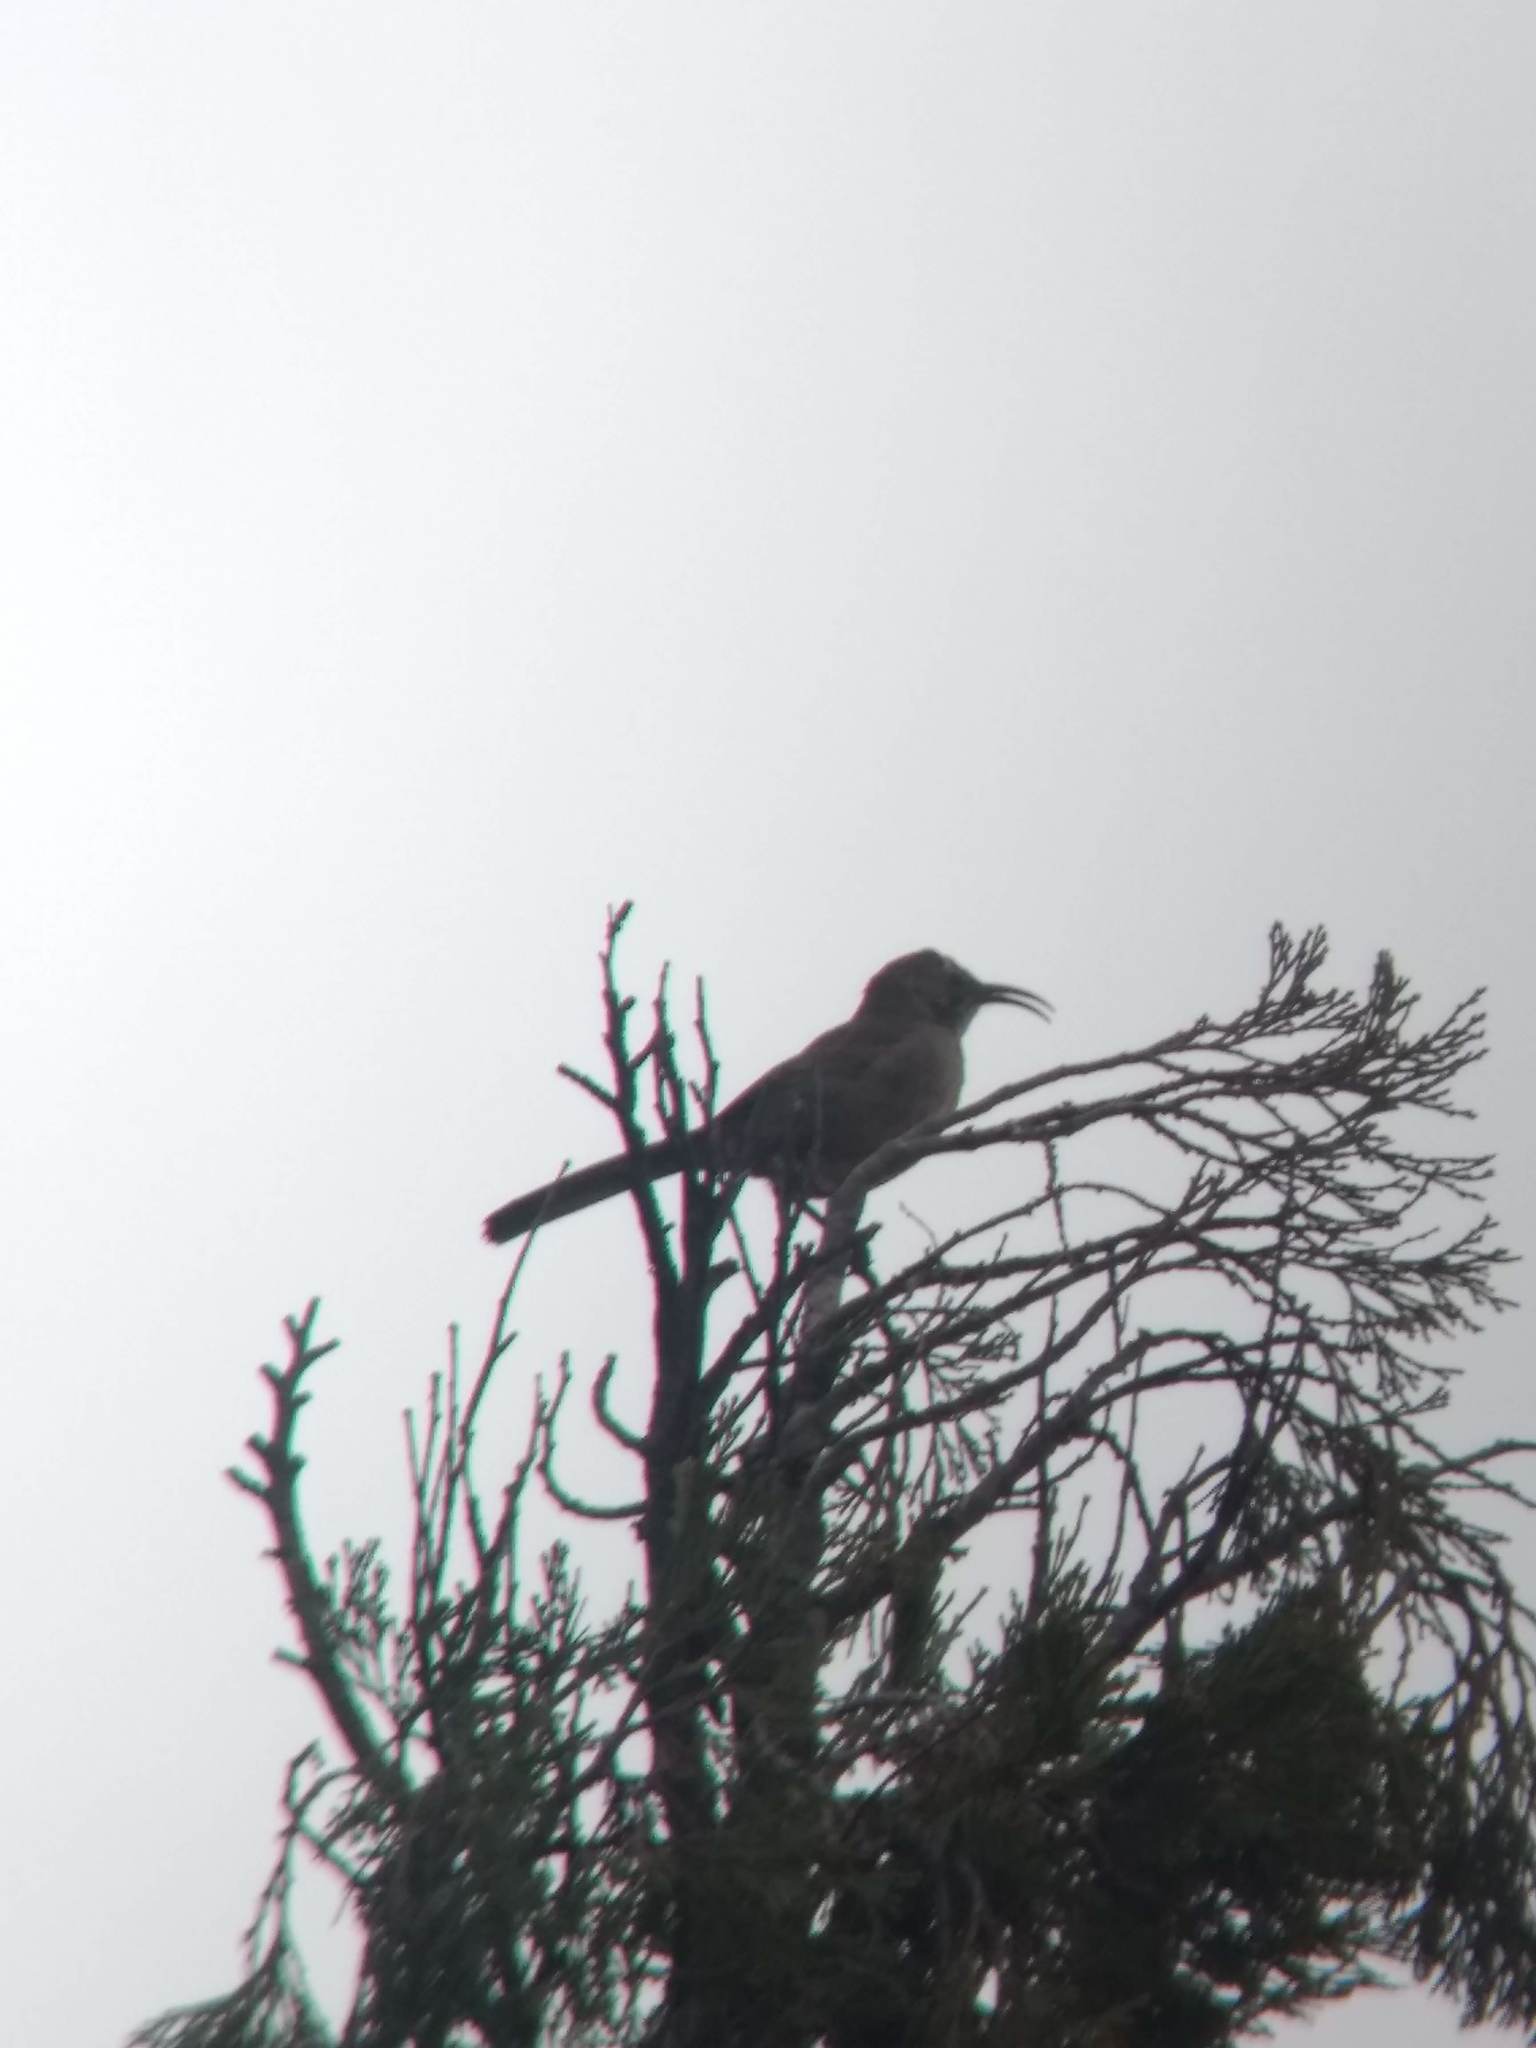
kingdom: Animalia
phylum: Chordata
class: Aves
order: Passeriformes
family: Mimidae
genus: Toxostoma
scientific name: Toxostoma redivivum
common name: California thrasher
